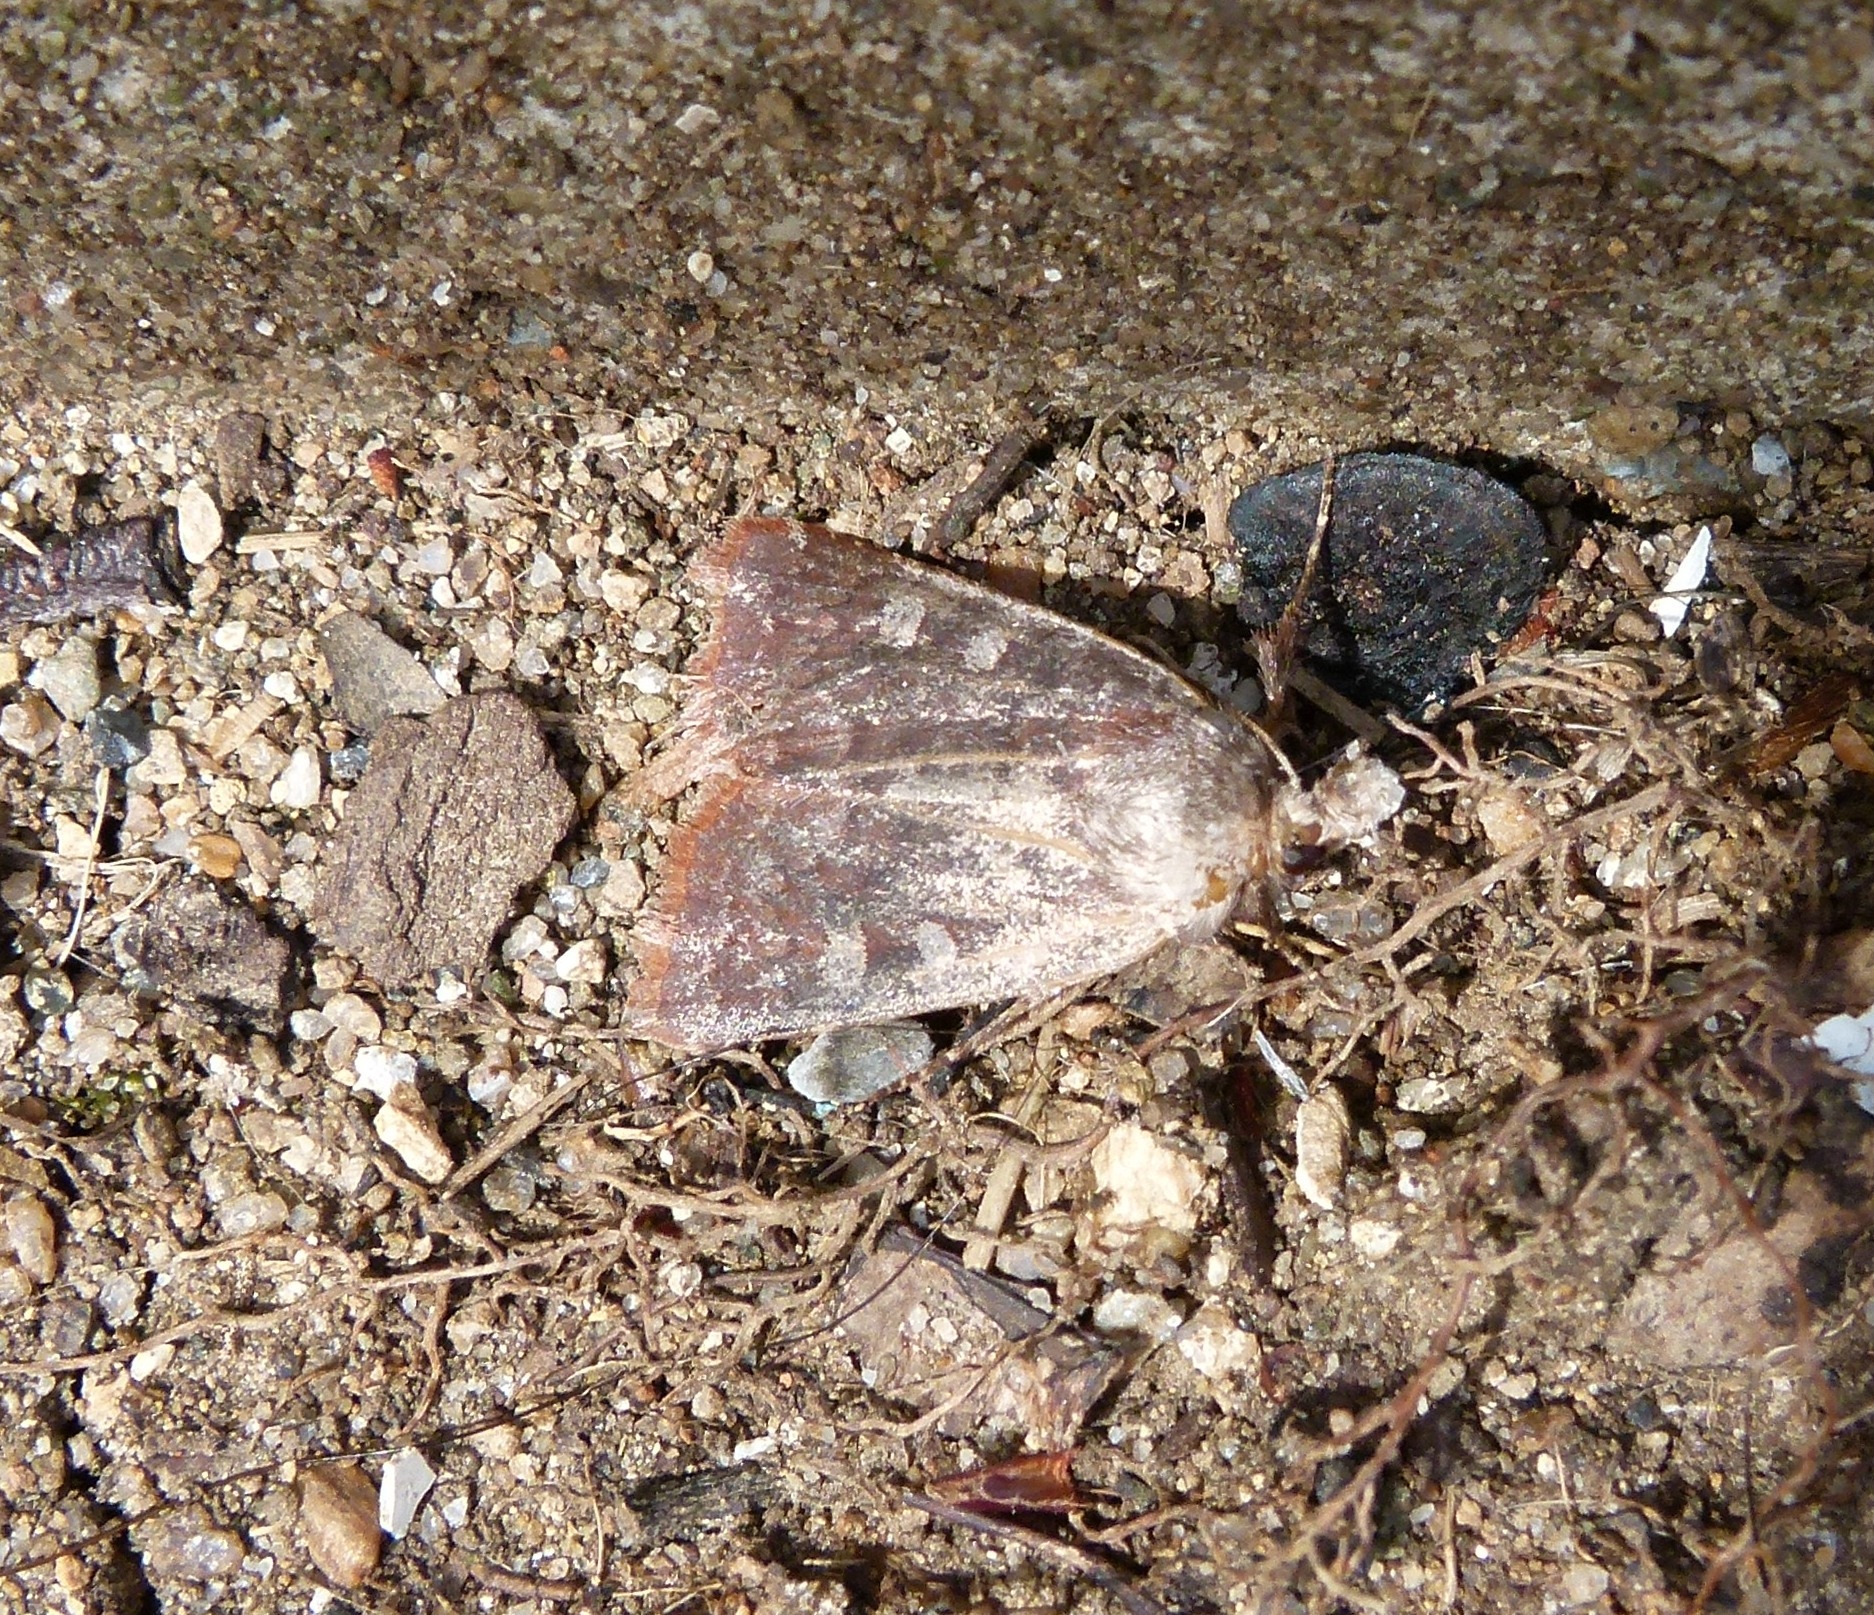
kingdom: Animalia
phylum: Arthropoda
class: Insecta
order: Lepidoptera
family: Noctuidae
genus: Cerastis
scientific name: Cerastis tenebrifera
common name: Reddish speckled dart
